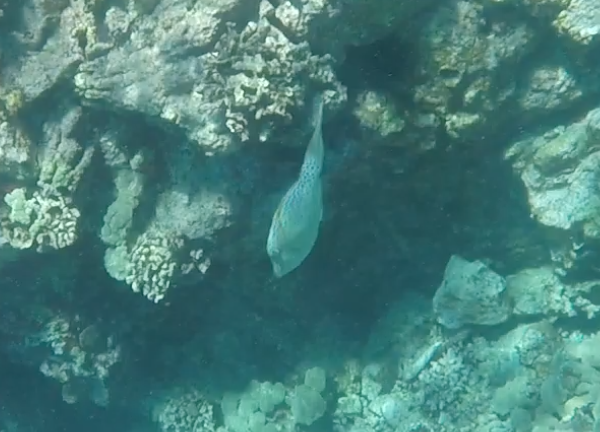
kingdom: Animalia
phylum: Chordata
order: Tetraodontiformes
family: Monacanthidae
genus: Aluterus
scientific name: Aluterus scriptus
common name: Scribbled leatherjacket filefish
